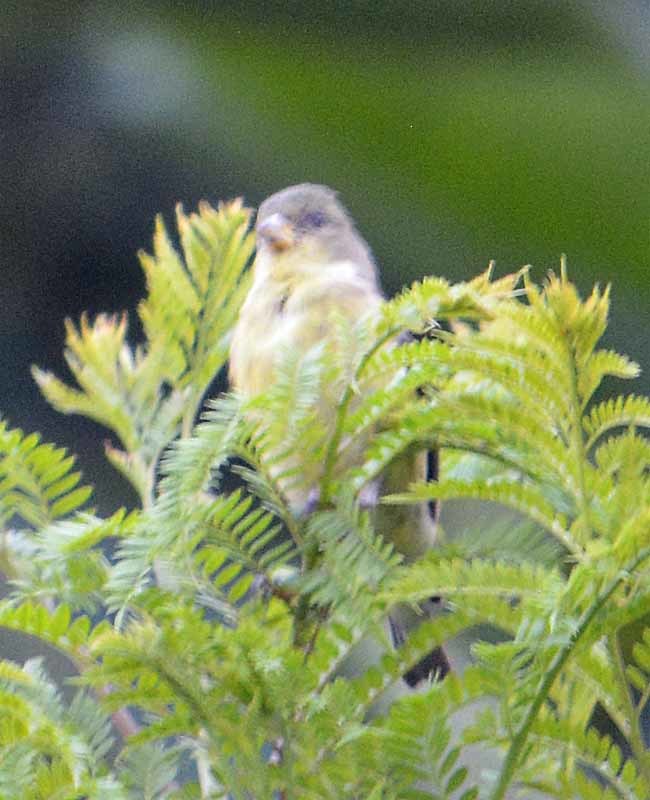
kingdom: Animalia
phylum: Chordata
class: Aves
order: Passeriformes
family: Fringillidae
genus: Spinus
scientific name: Spinus psaltria
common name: Lesser goldfinch
